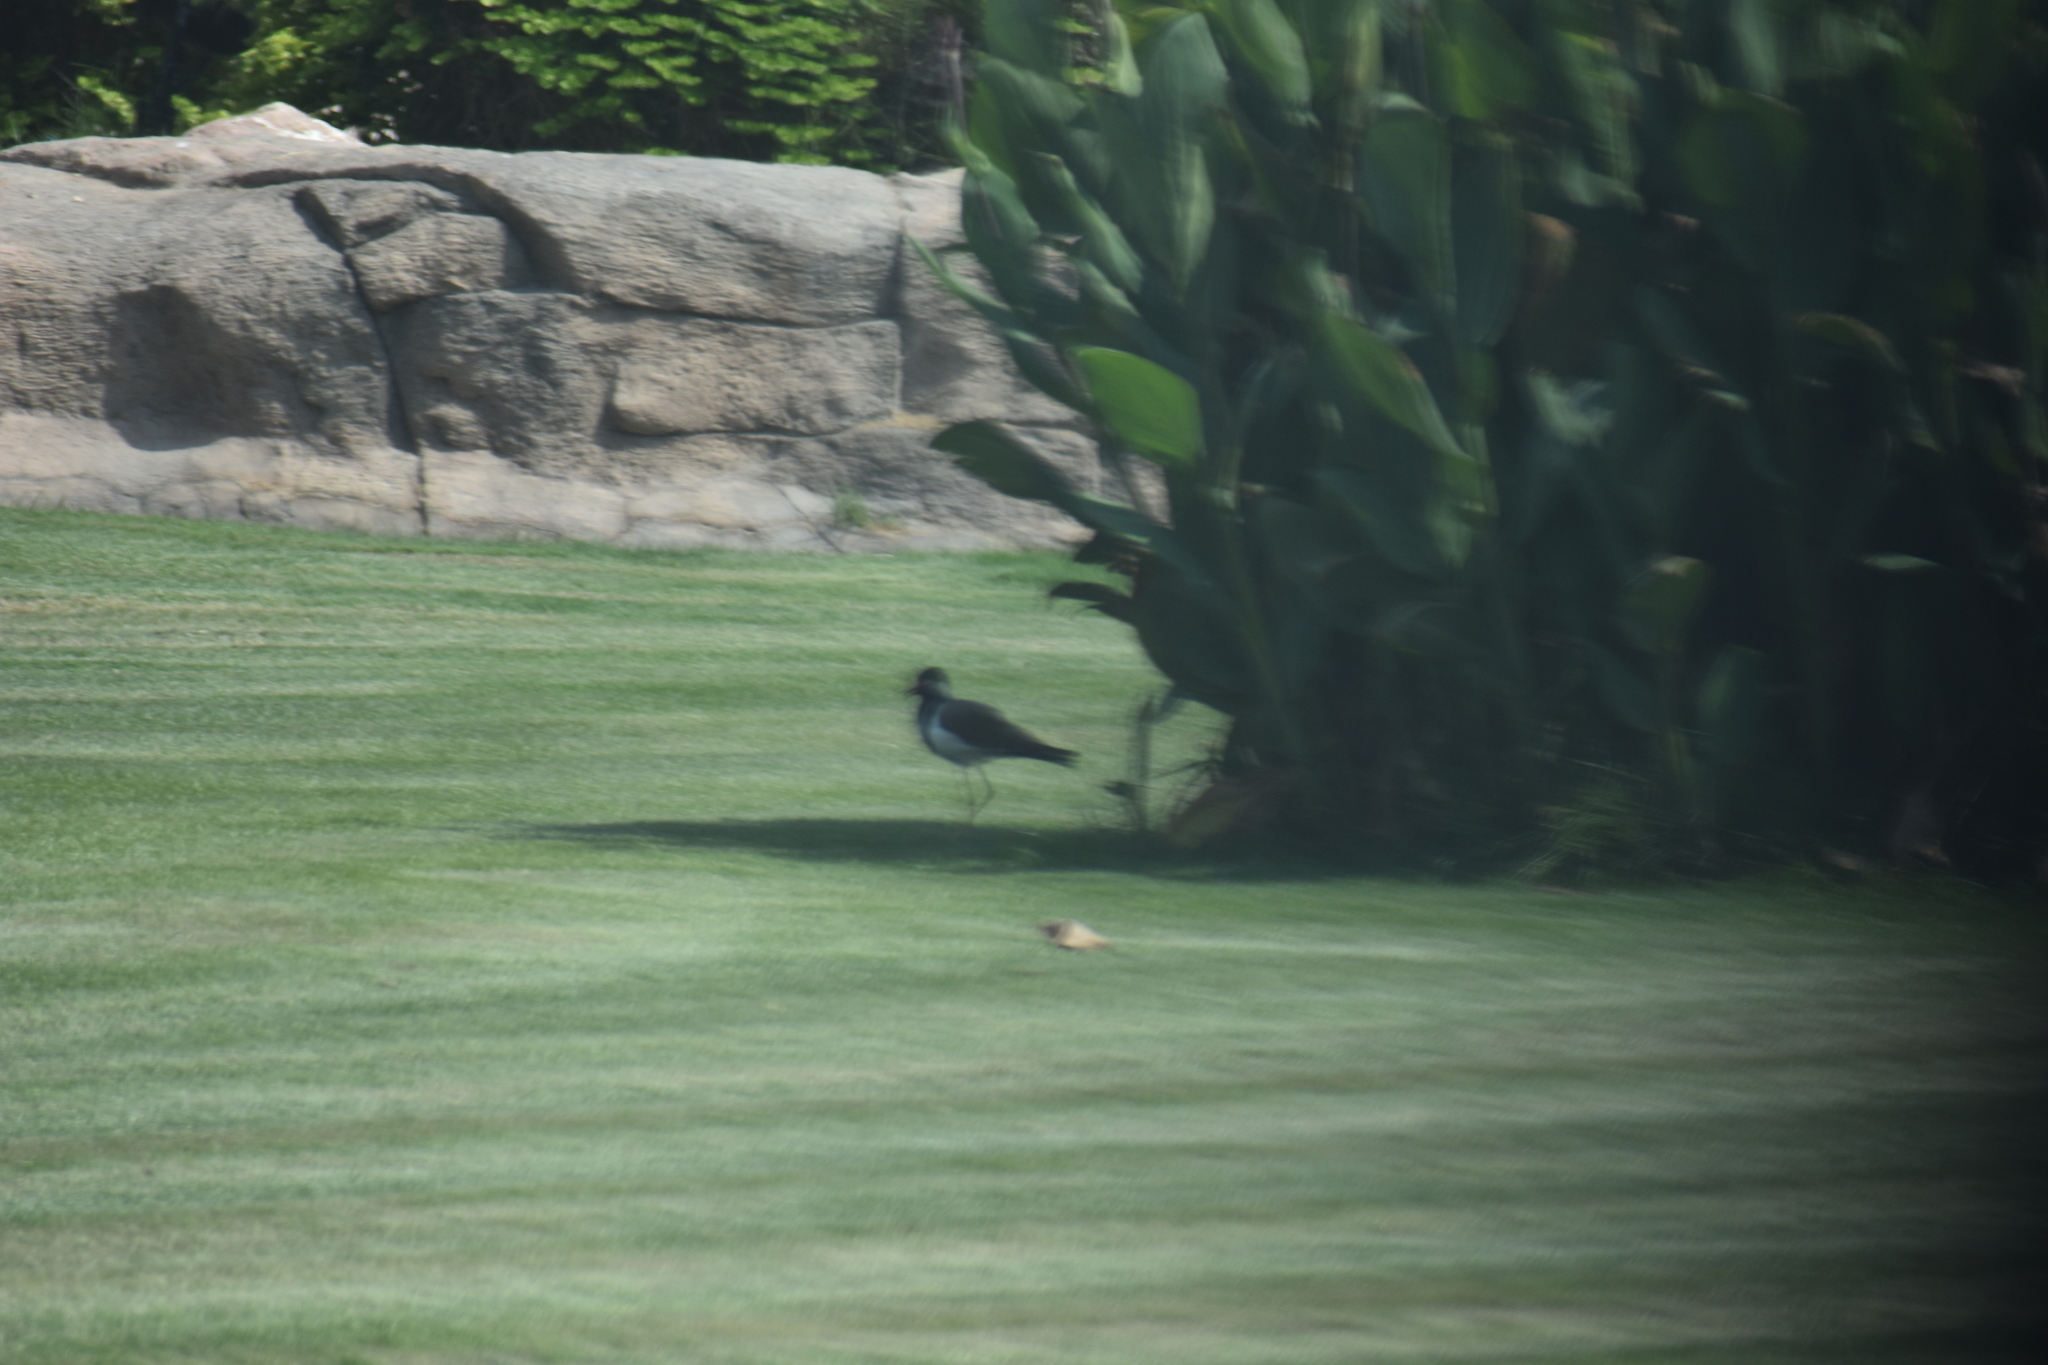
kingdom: Animalia
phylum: Chordata
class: Aves
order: Charadriiformes
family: Charadriidae
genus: Vanellus
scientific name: Vanellus indicus
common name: Red-wattled lapwing
